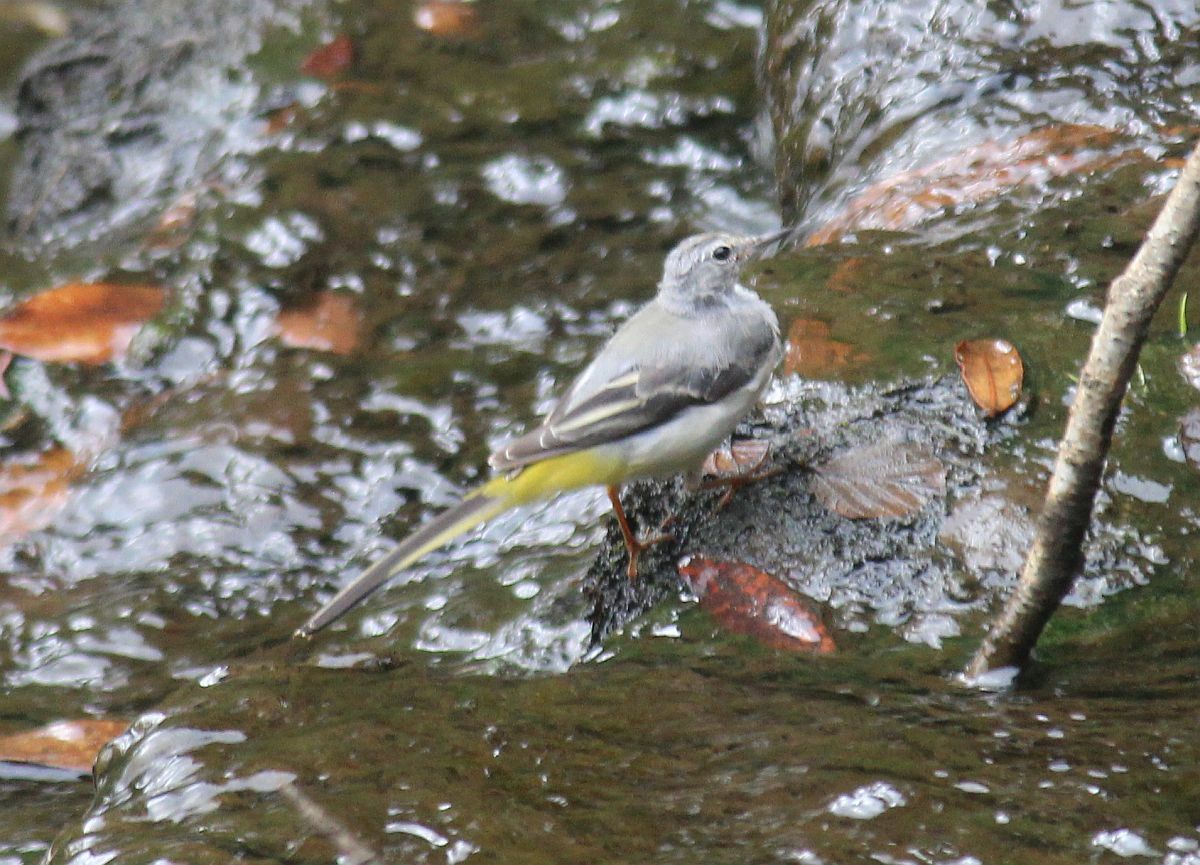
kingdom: Animalia
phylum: Chordata
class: Aves
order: Passeriformes
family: Motacillidae
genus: Motacilla
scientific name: Motacilla cinerea
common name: Grey wagtail
